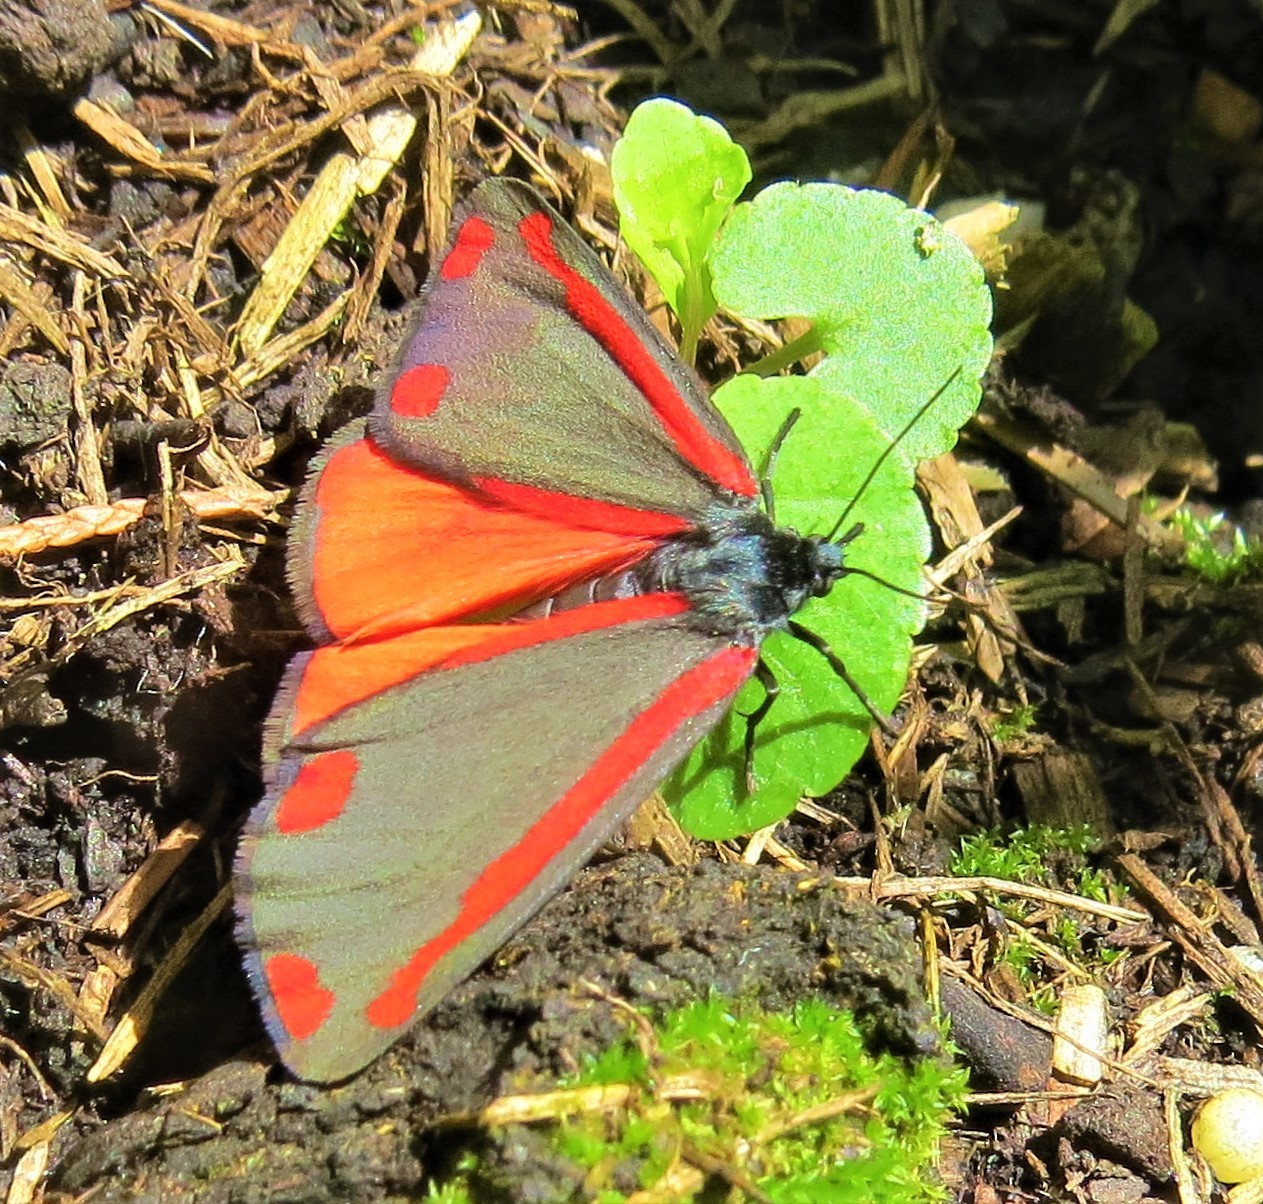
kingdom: Animalia
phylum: Arthropoda
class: Insecta
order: Lepidoptera
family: Erebidae
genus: Tyria
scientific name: Tyria jacobaeae
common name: Cinnabar
